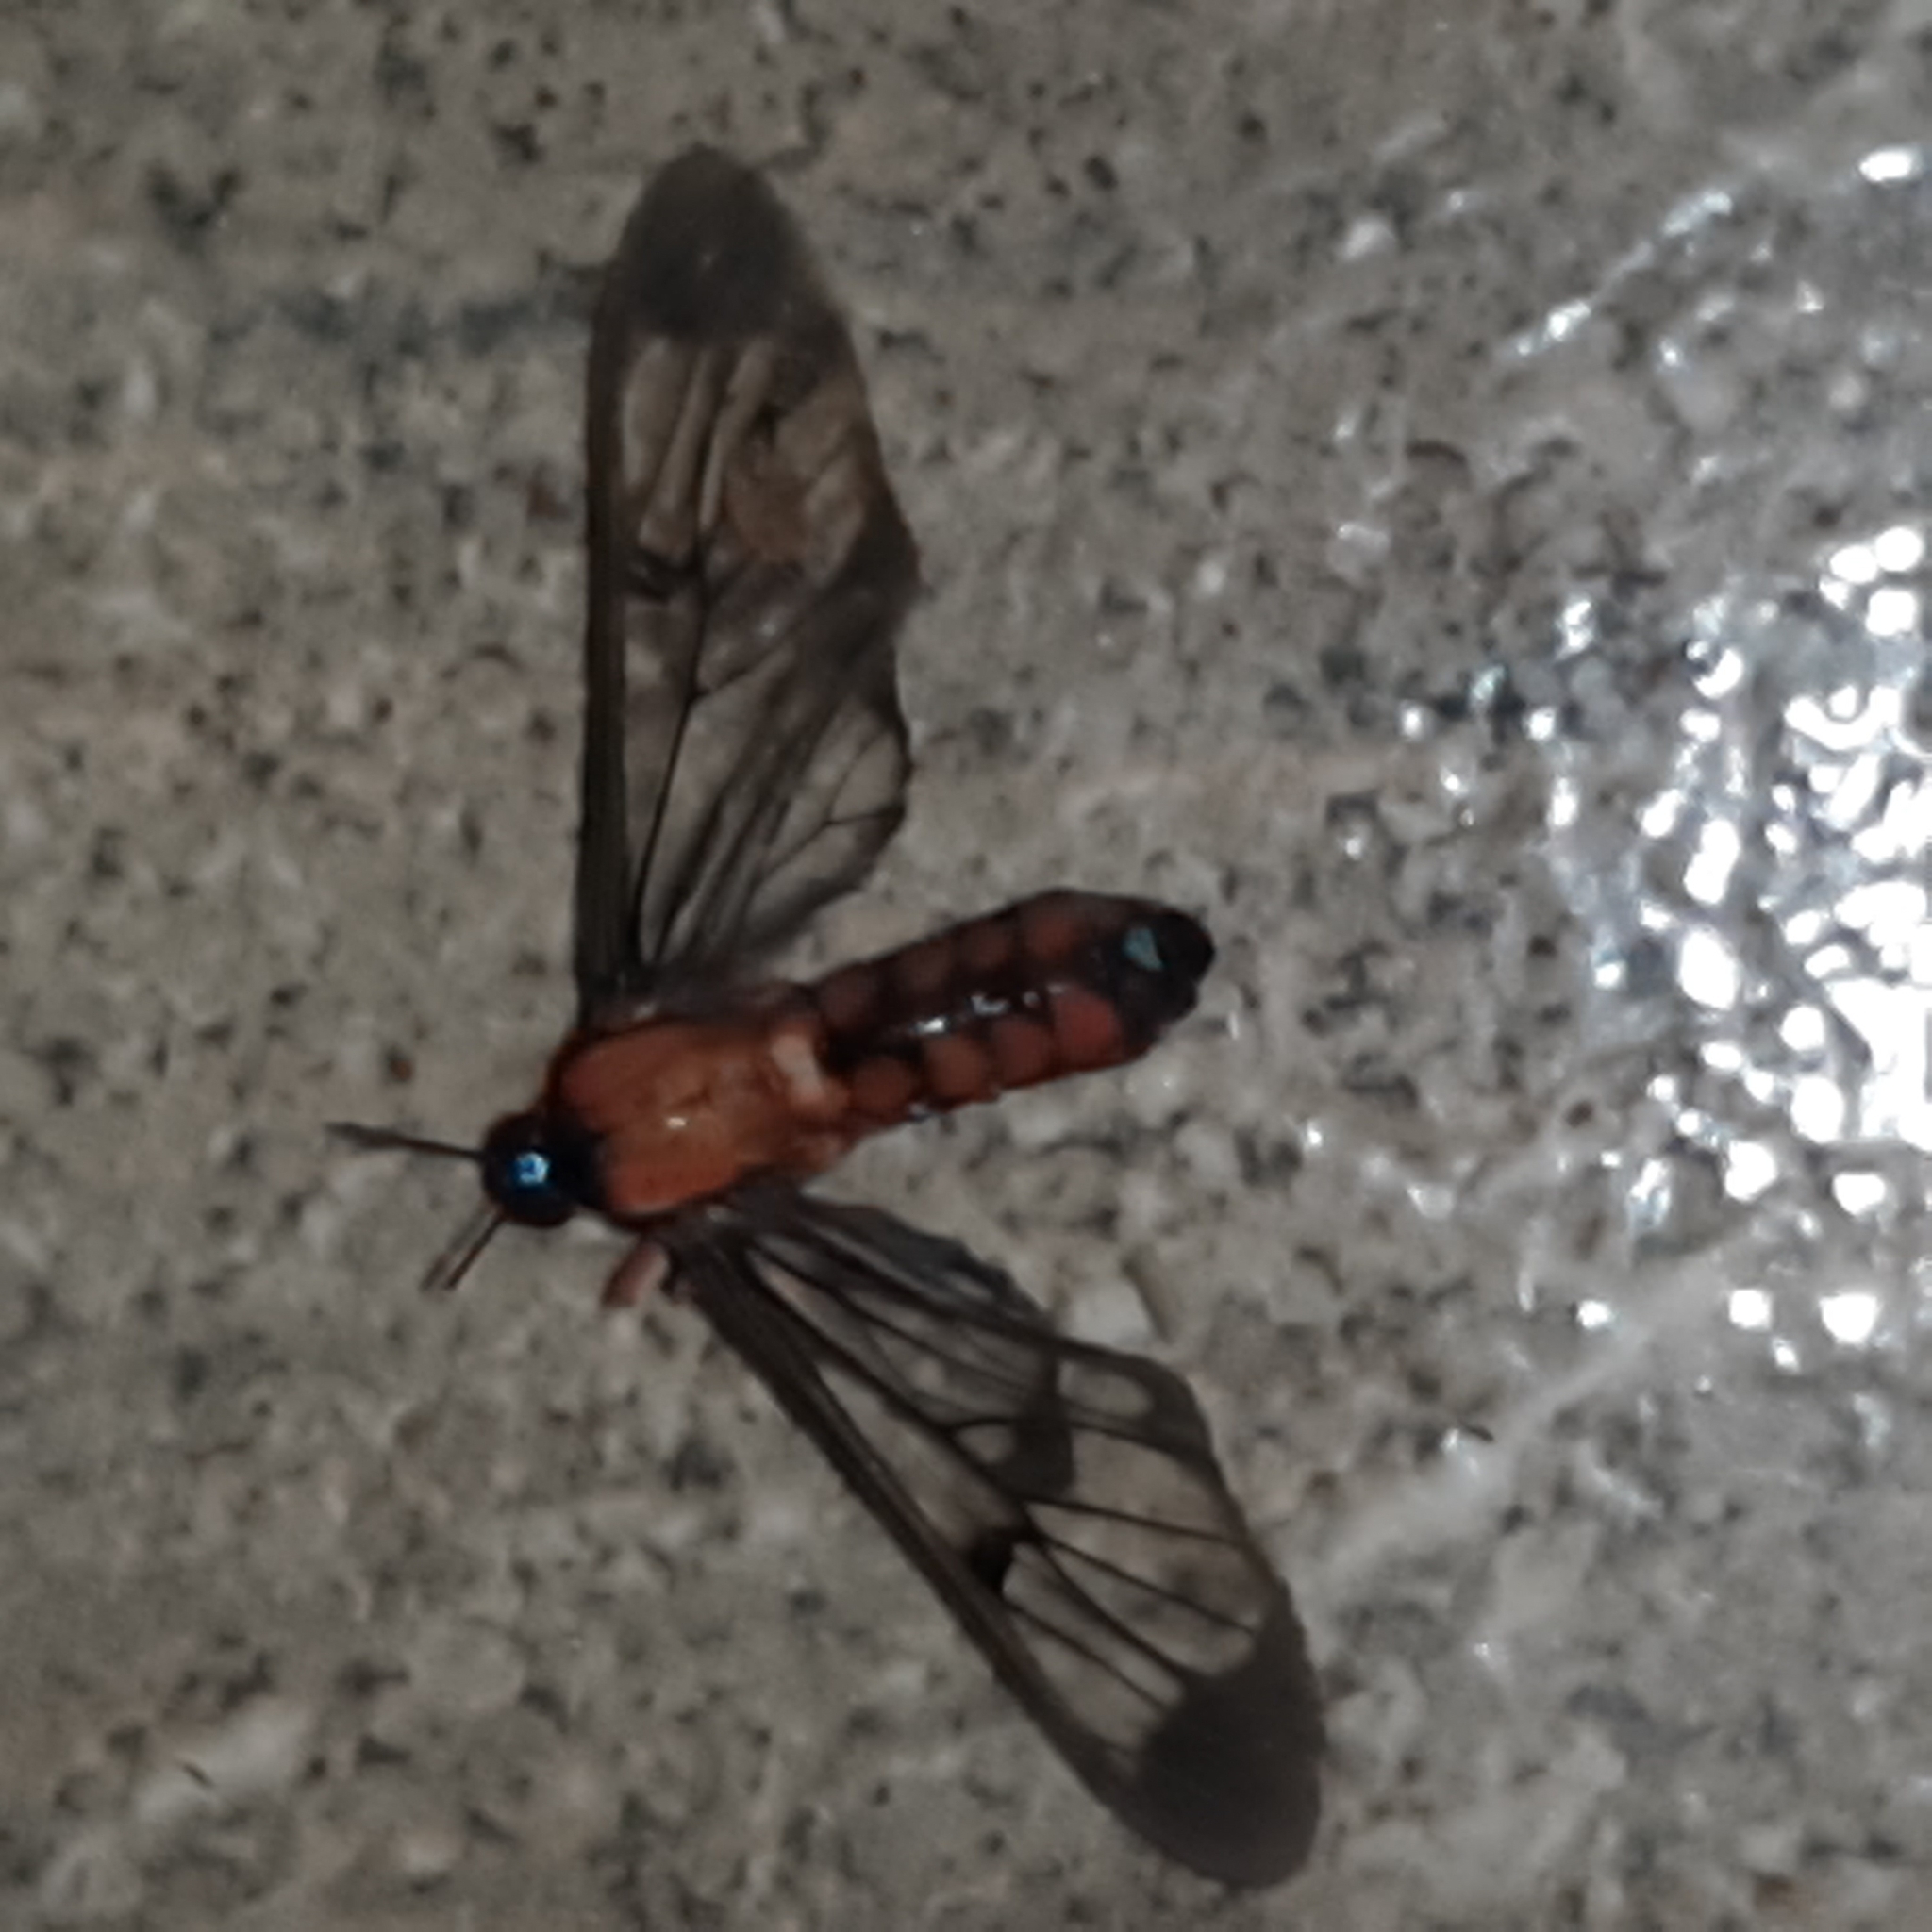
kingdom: Animalia
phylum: Arthropoda
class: Insecta
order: Lepidoptera
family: Erebidae
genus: Cosmosoma
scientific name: Cosmosoma sectinota
